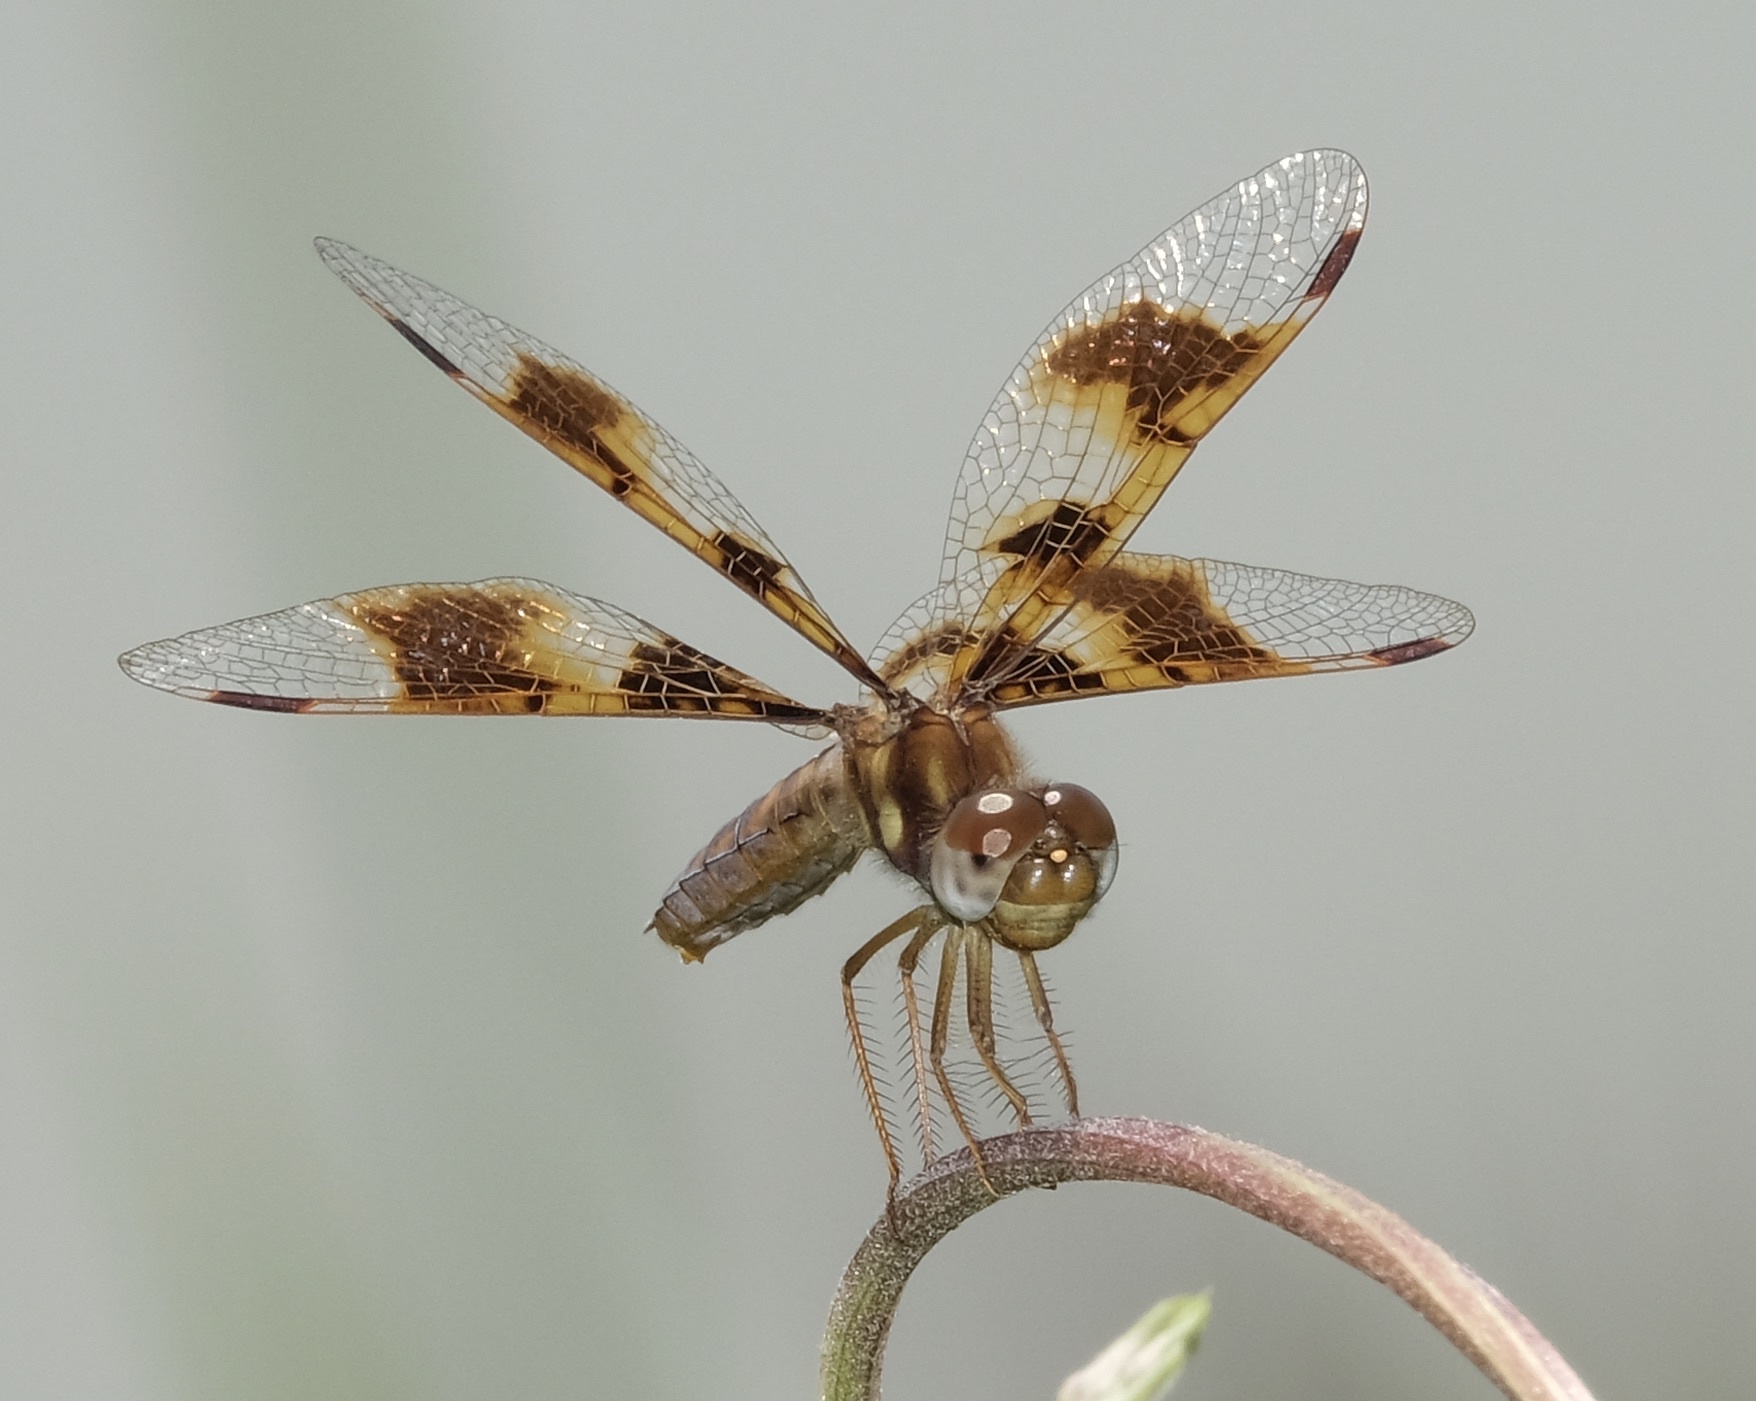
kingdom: Animalia
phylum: Arthropoda
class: Insecta
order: Odonata
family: Libellulidae
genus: Perithemis
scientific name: Perithemis tenera
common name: Eastern amberwing
